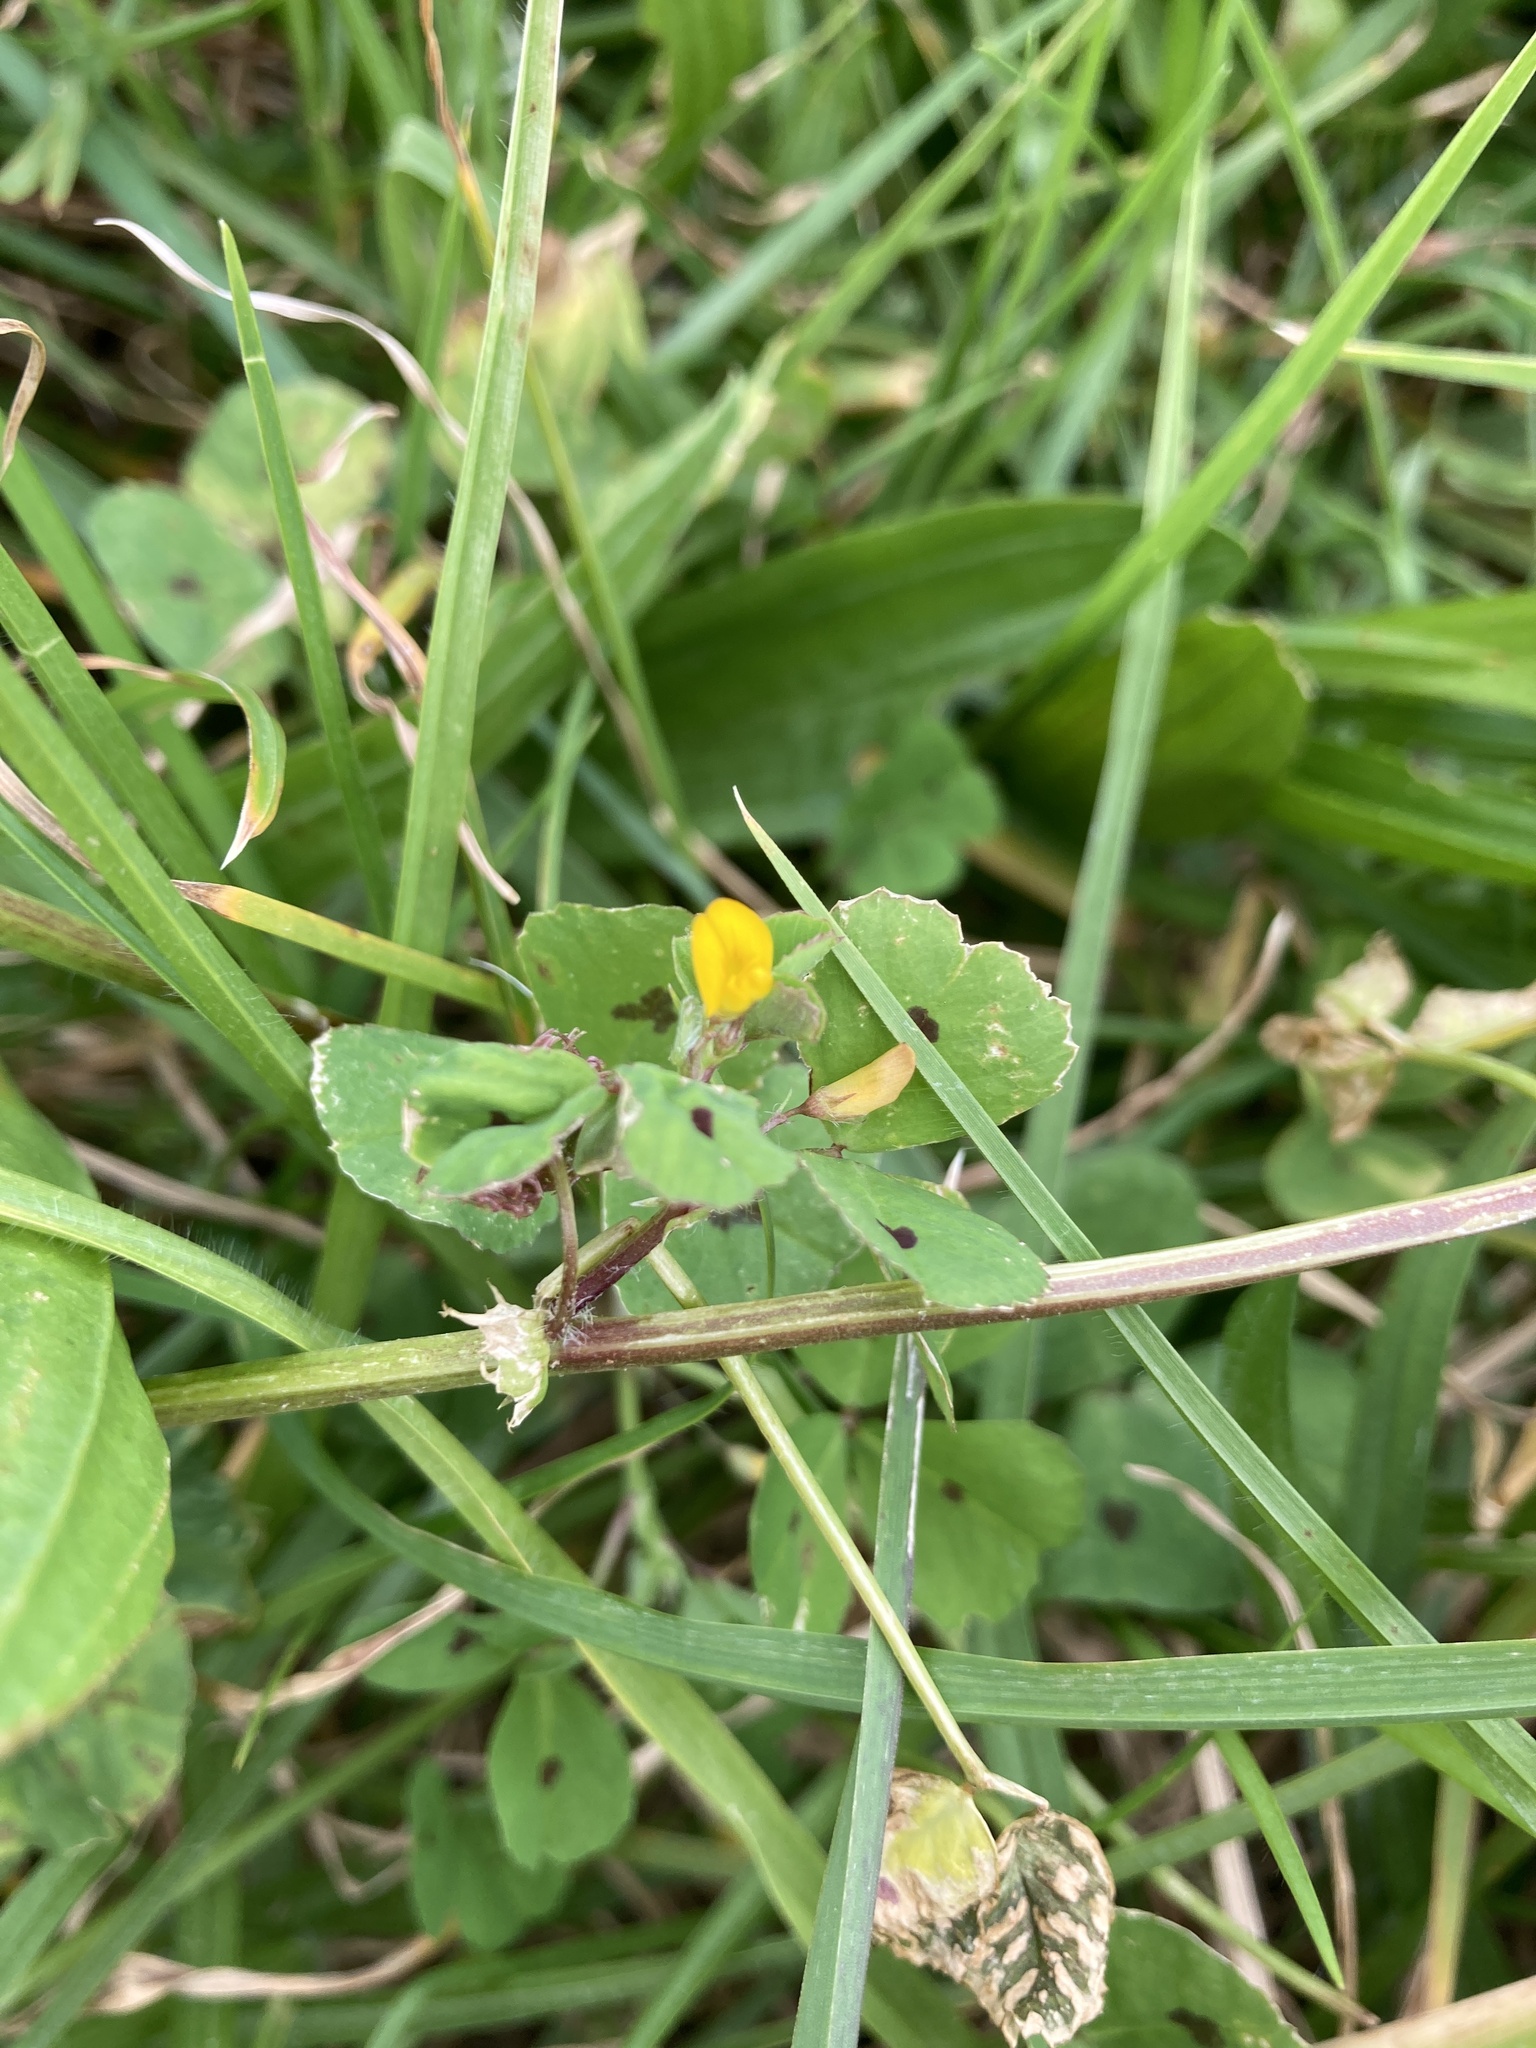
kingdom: Plantae
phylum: Tracheophyta
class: Magnoliopsida
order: Fabales
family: Fabaceae
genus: Medicago
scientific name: Medicago arabica
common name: Spotted medick
